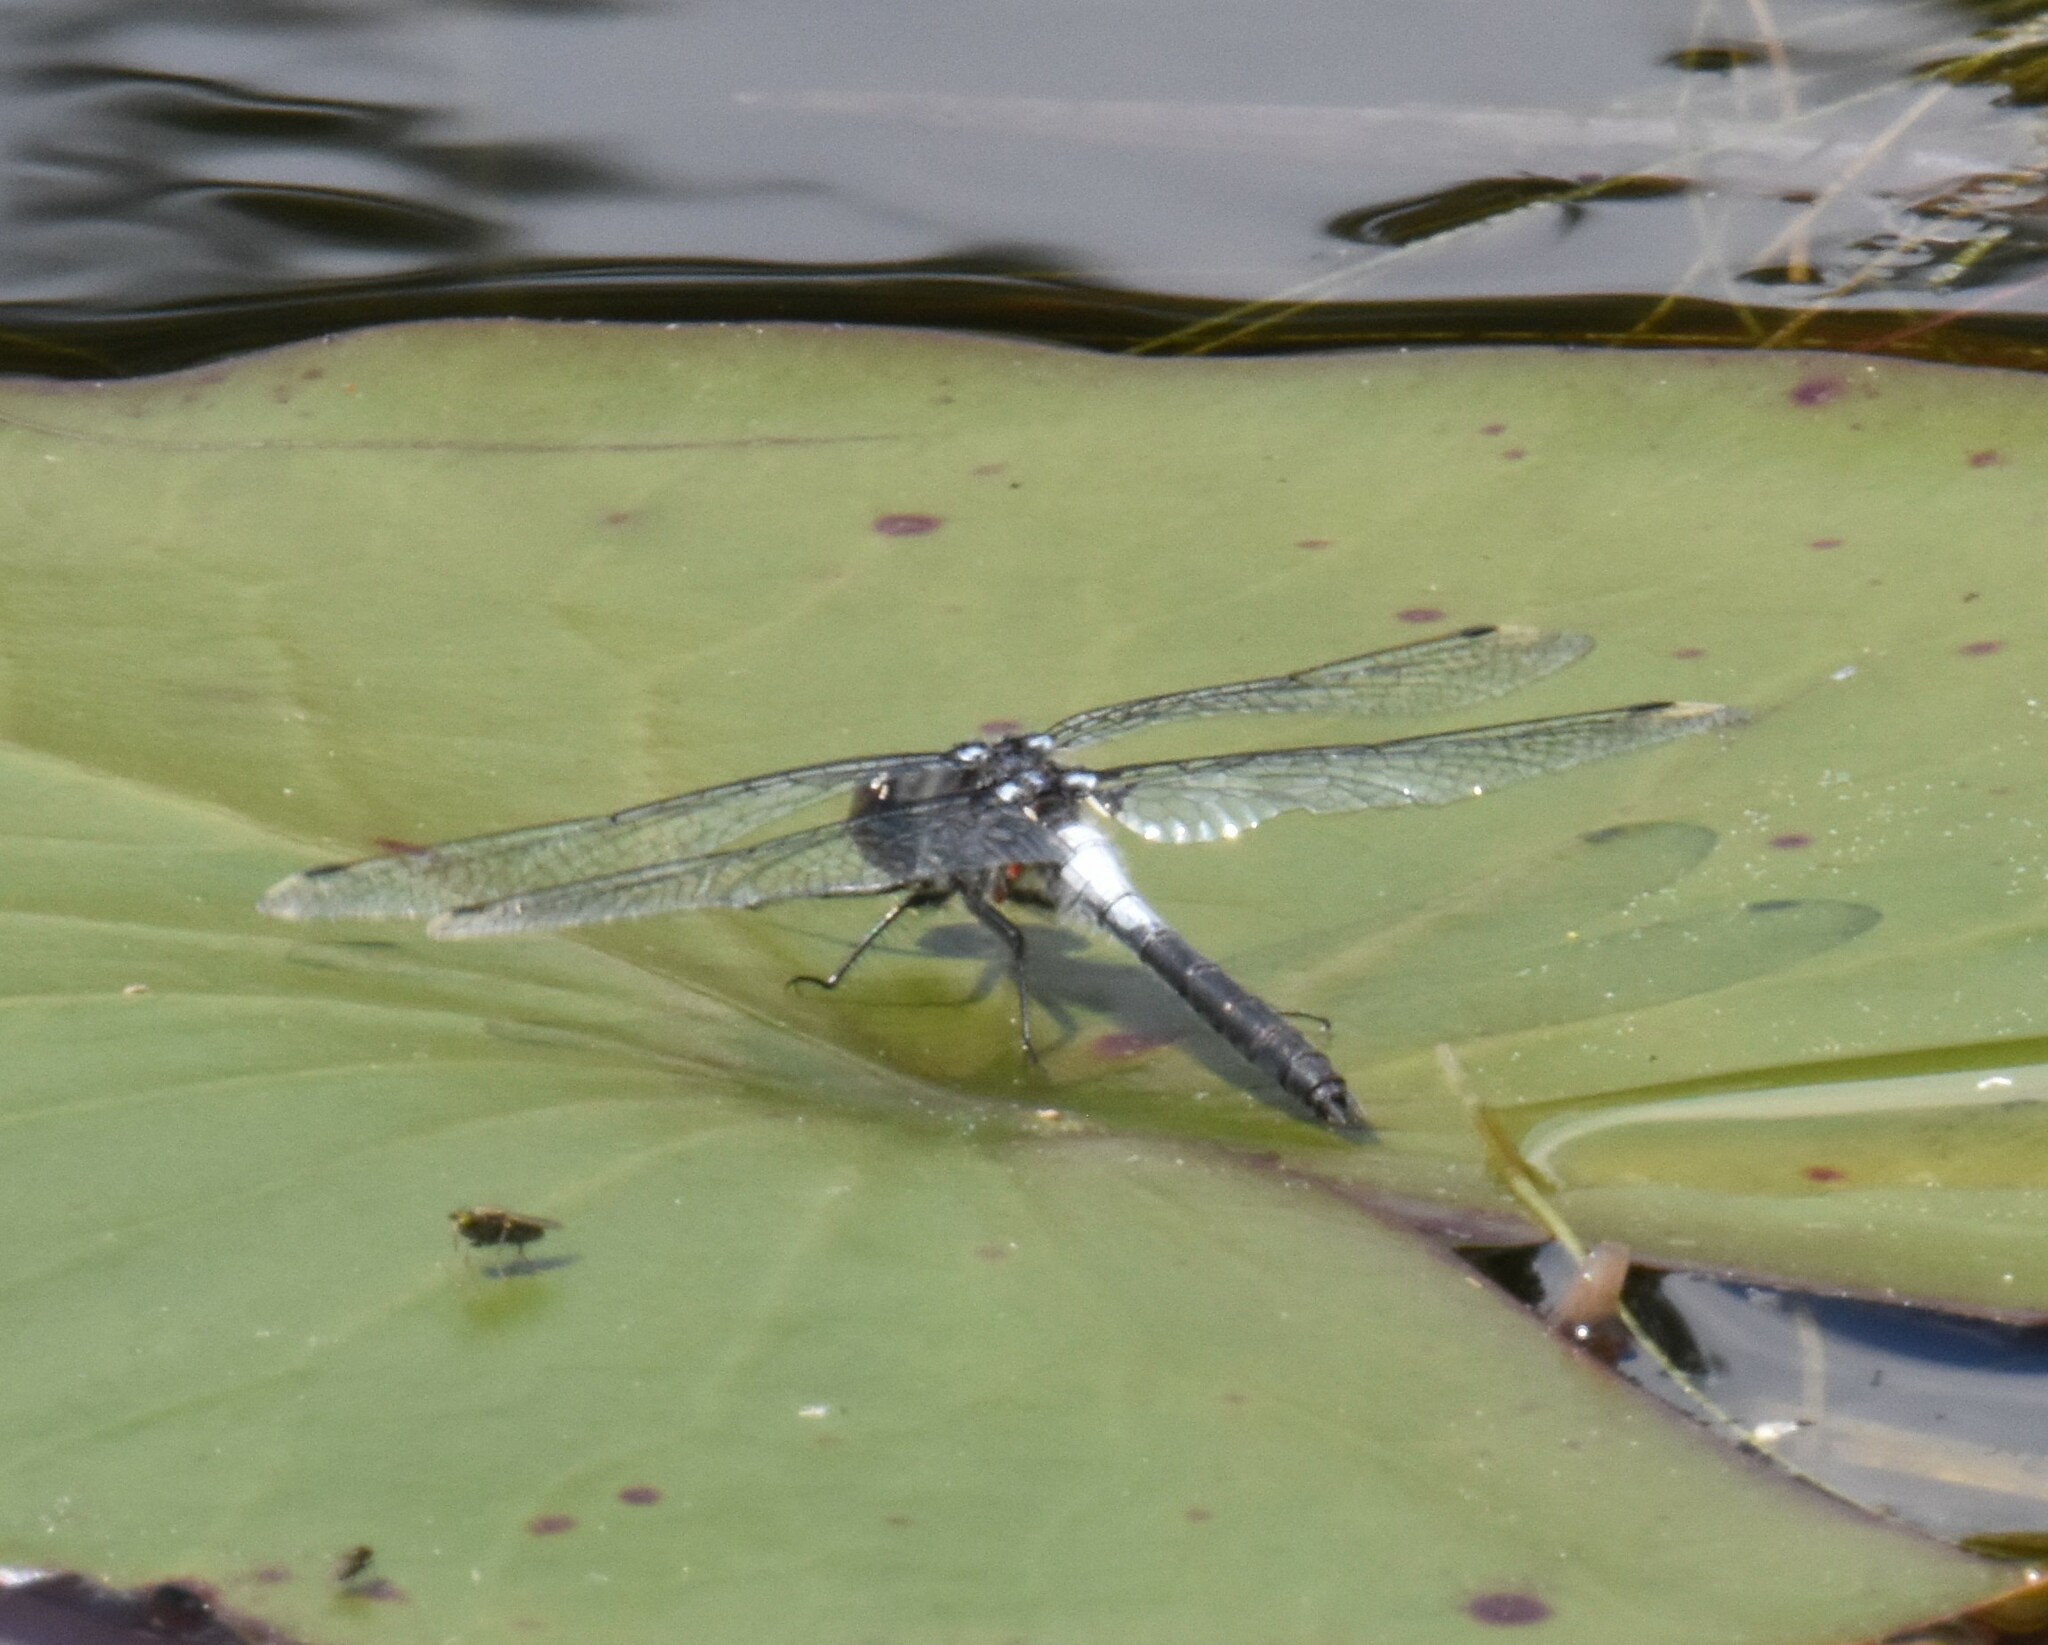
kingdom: Animalia
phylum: Arthropoda
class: Insecta
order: Odonata
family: Libellulidae
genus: Leucorrhinia
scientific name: Leucorrhinia frigida
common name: Frosted whiteface
